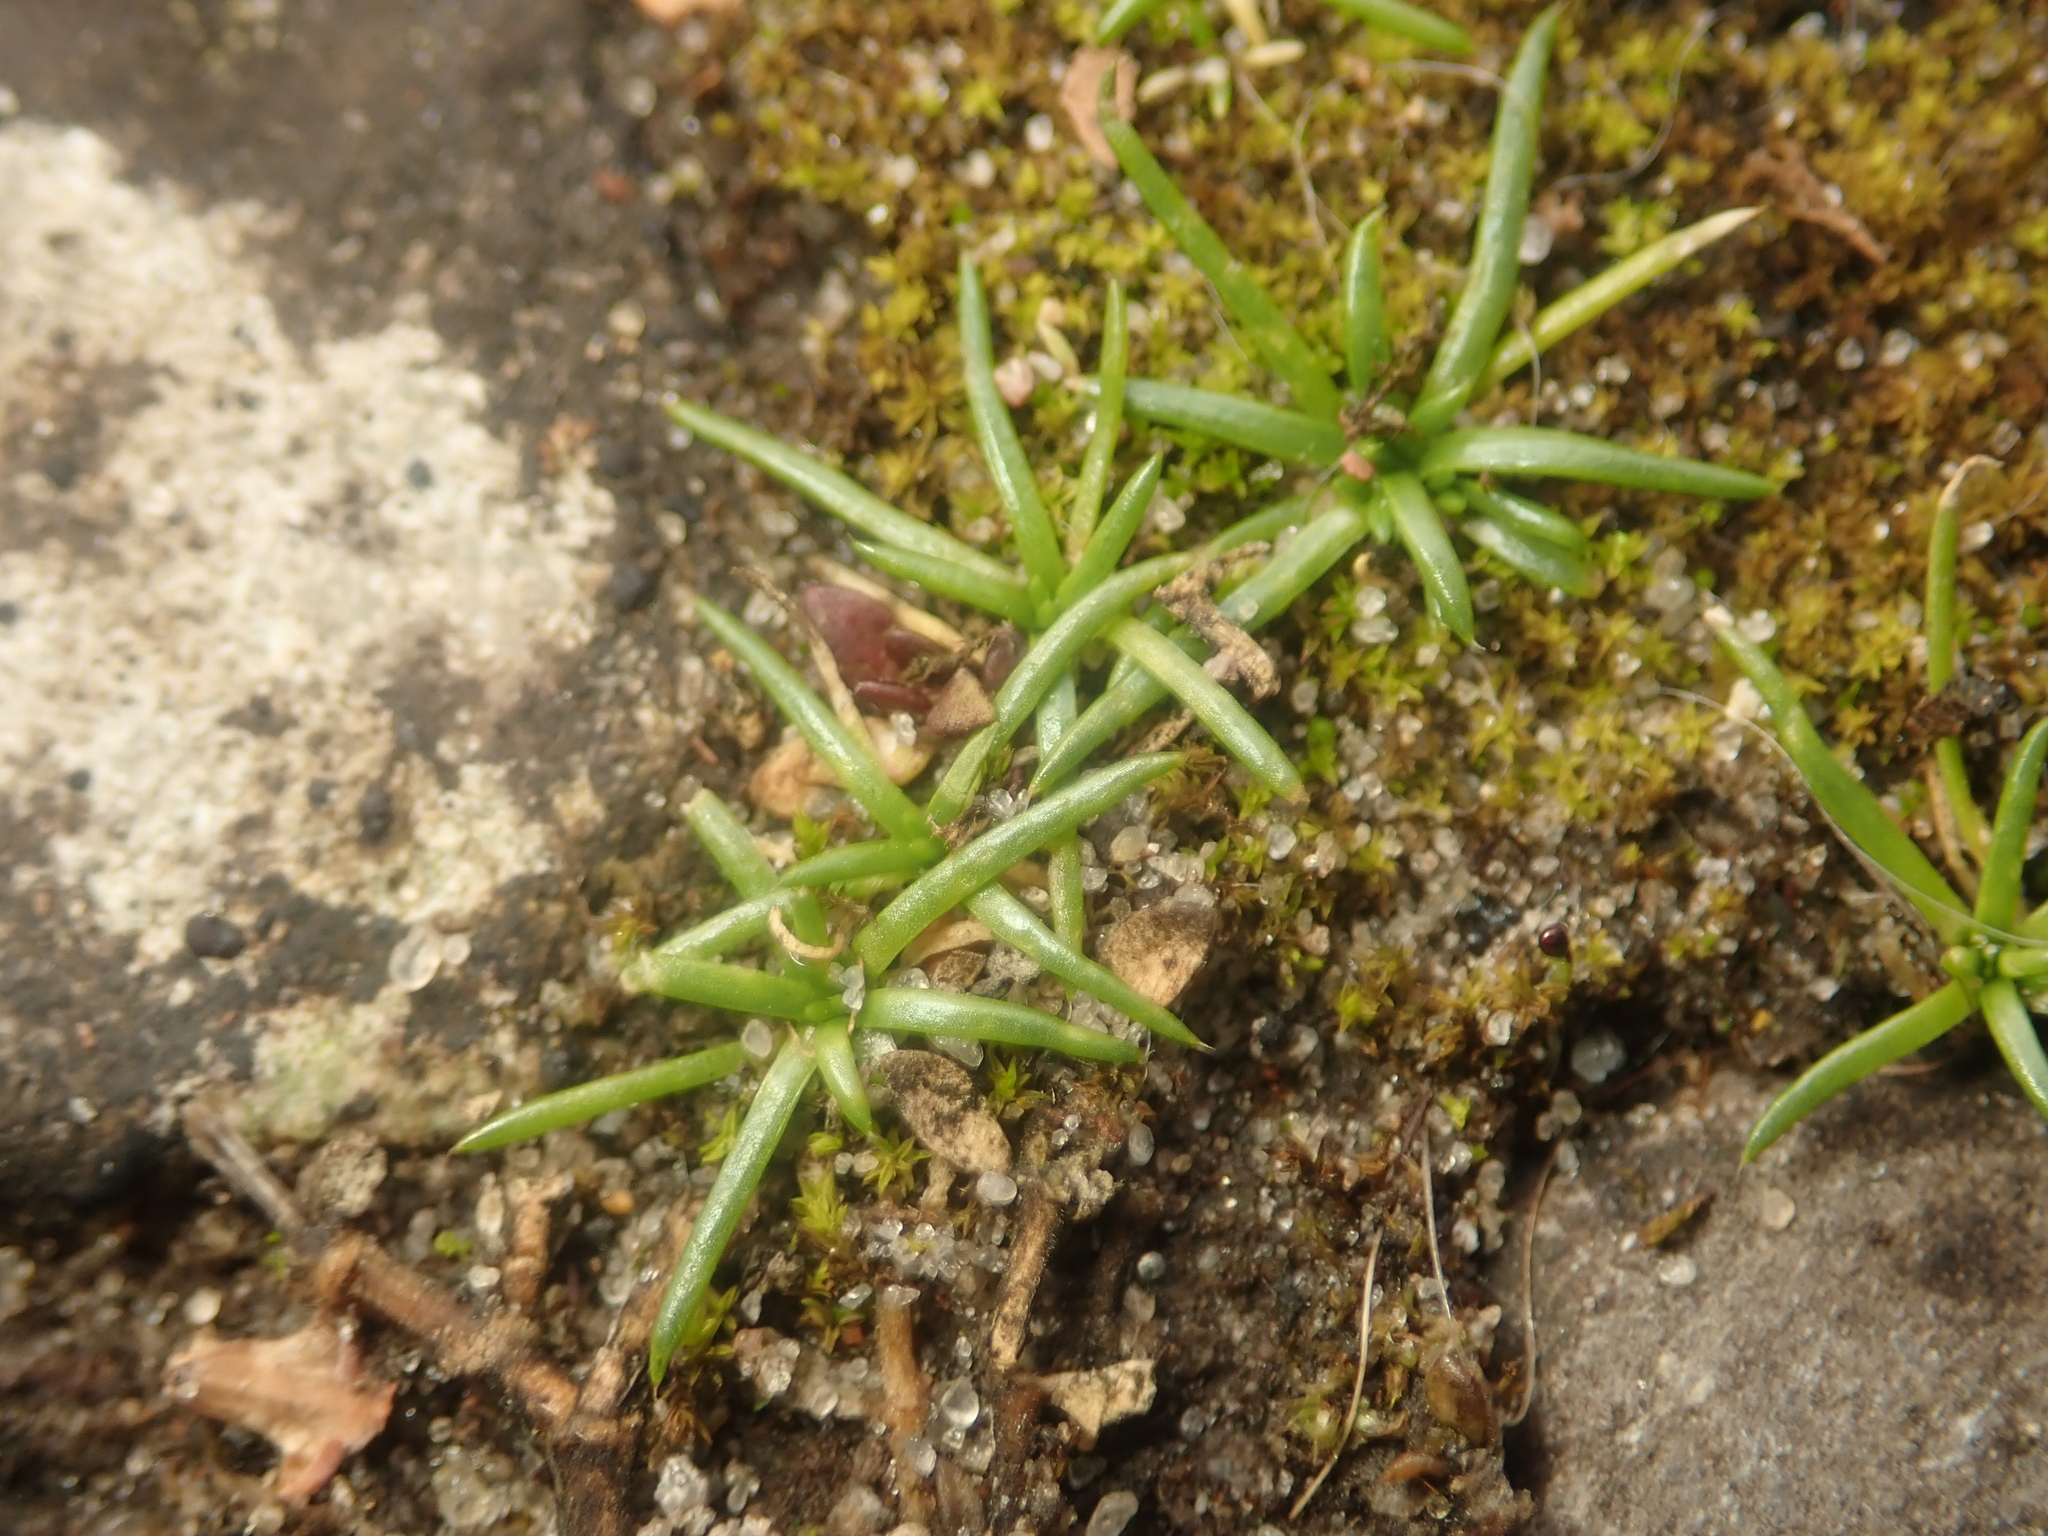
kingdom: Plantae
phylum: Tracheophyta
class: Magnoliopsida
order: Caryophyllales
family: Caryophyllaceae
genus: Sagina
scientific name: Sagina procumbens
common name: Procumbent pearlwort
